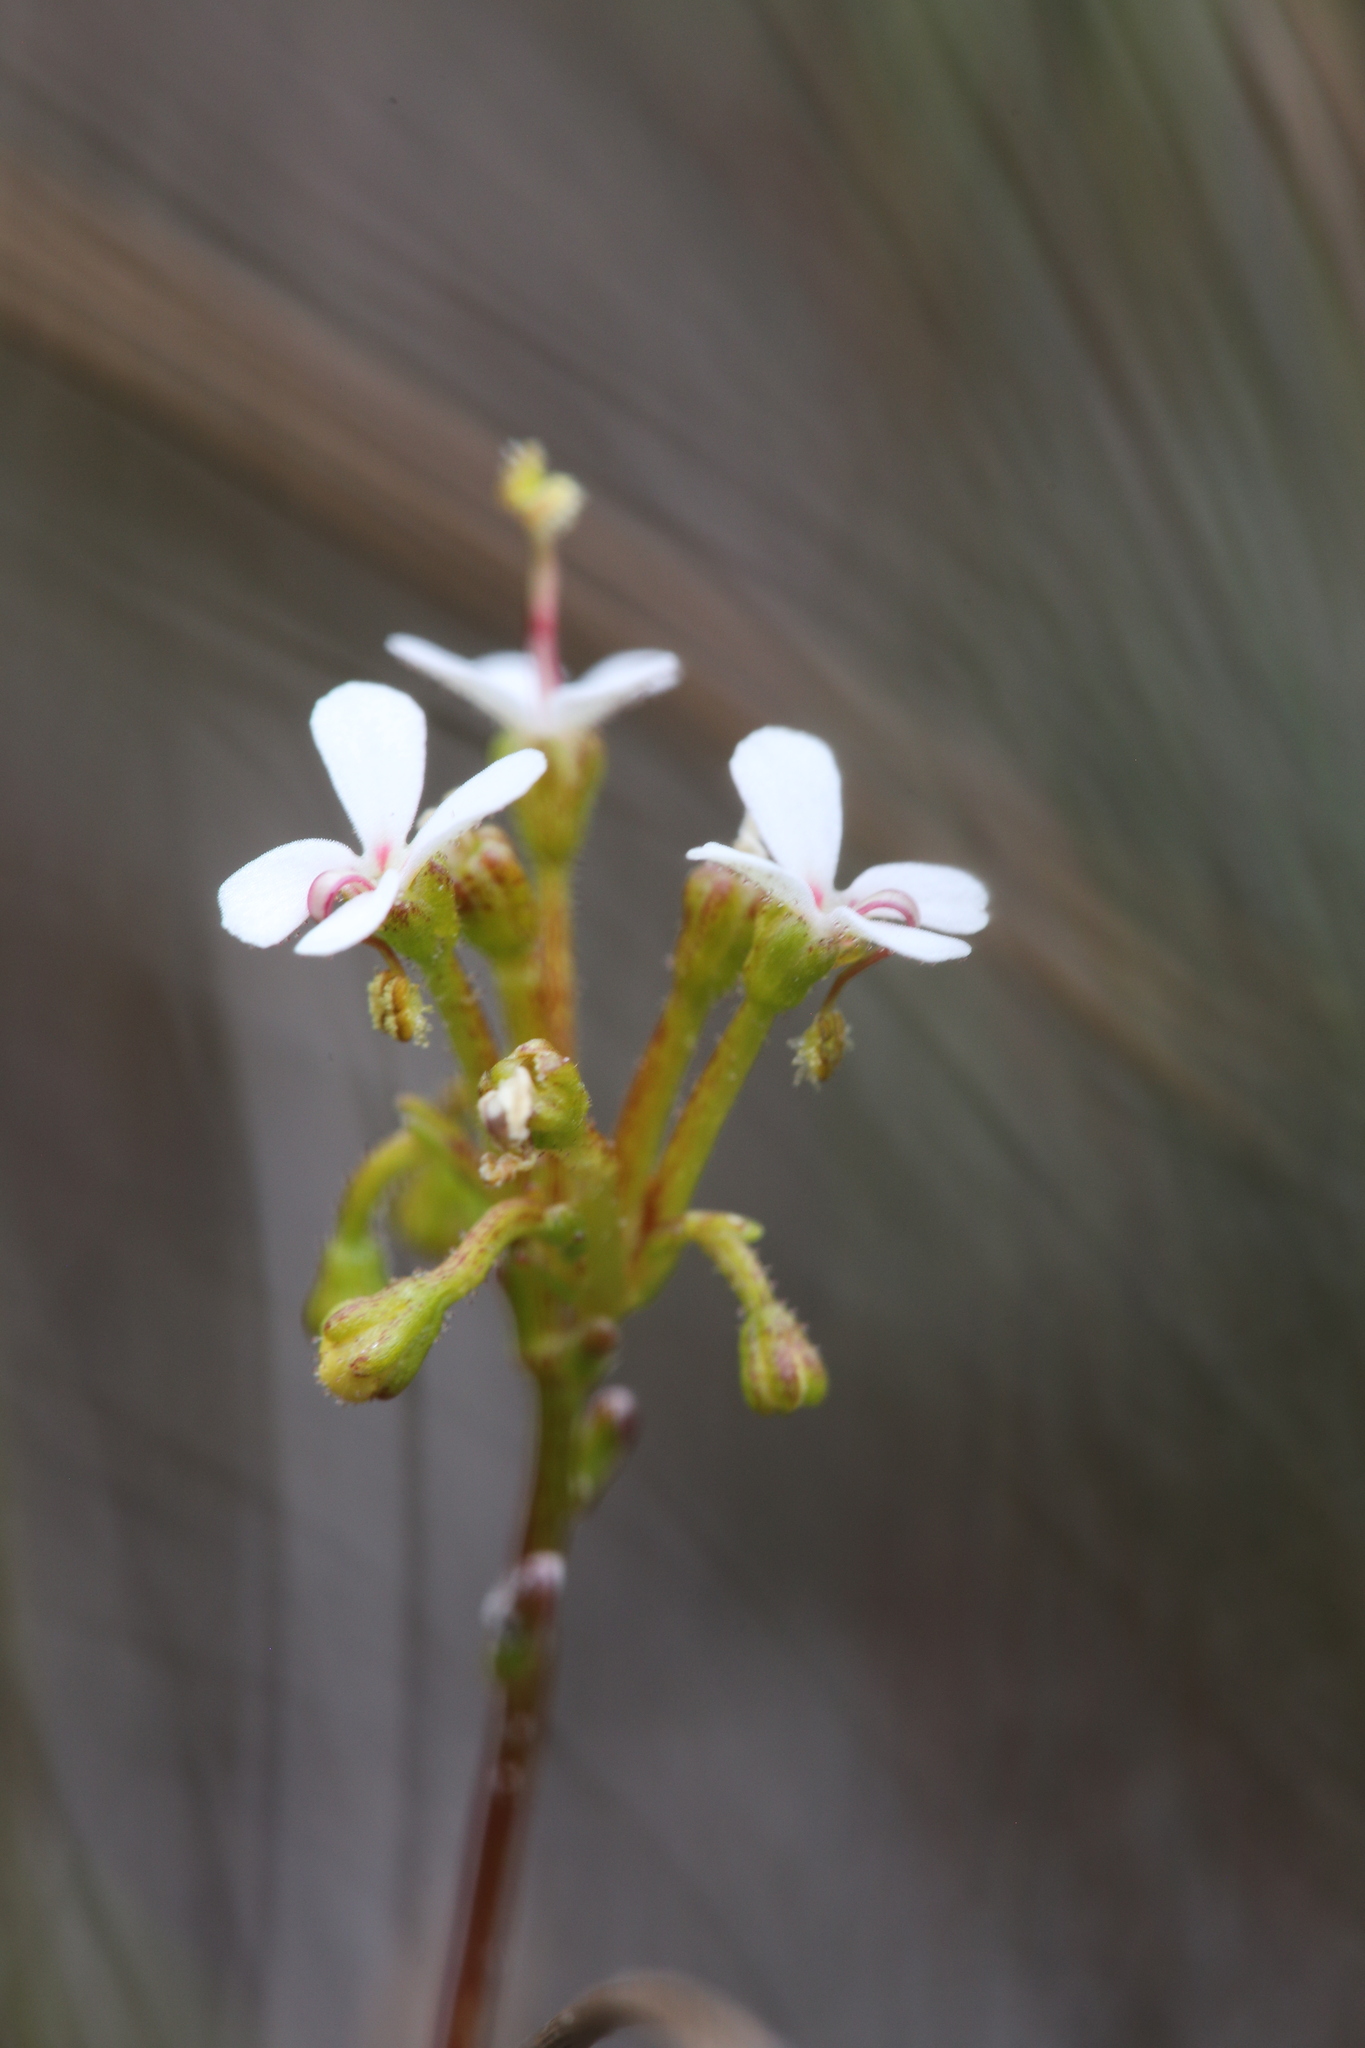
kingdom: Plantae
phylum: Tracheophyta
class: Magnoliopsida
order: Asterales
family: Stylidiaceae
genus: Stylidium
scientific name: Stylidium corymbosum
